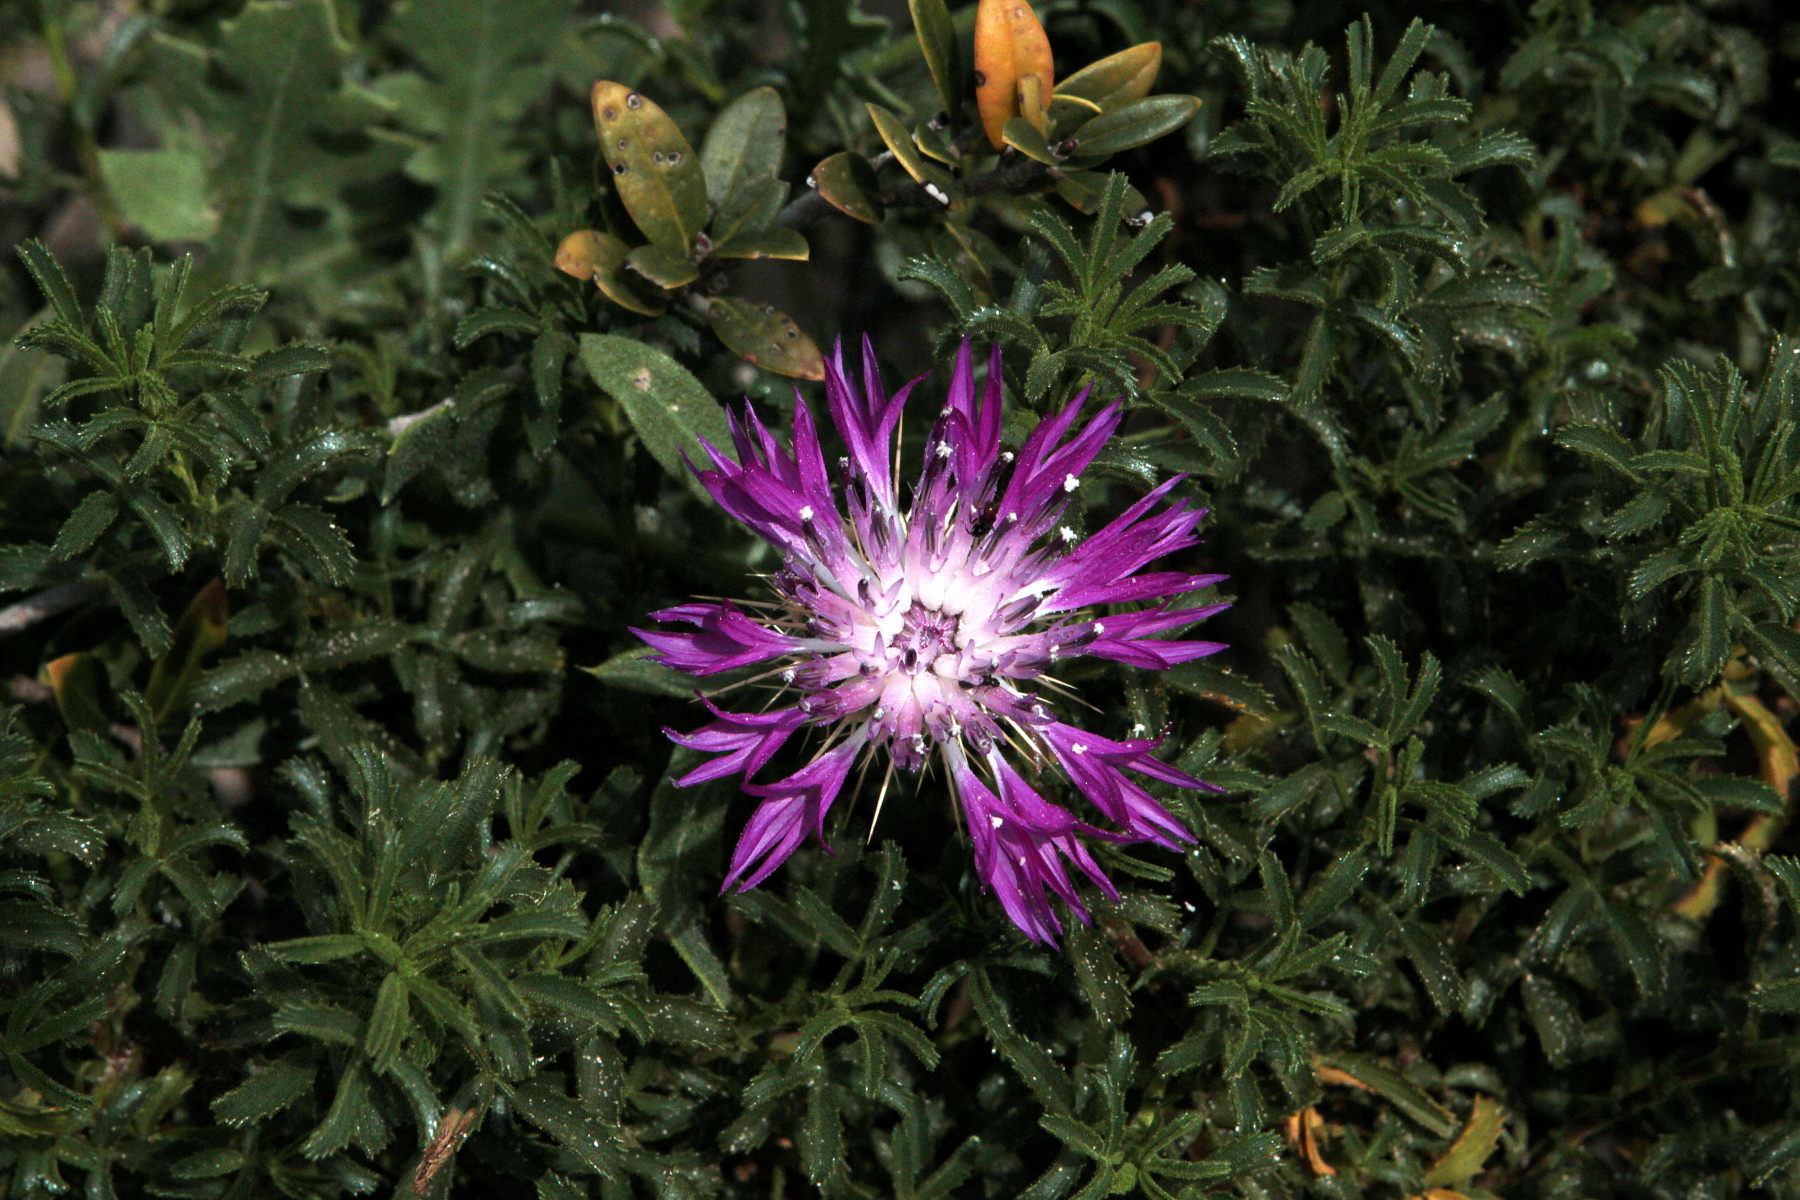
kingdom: Plantae
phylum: Tracheophyta
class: Magnoliopsida
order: Asterales
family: Asteraceae
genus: Centaurea
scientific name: Centaurea sphaerocephala
